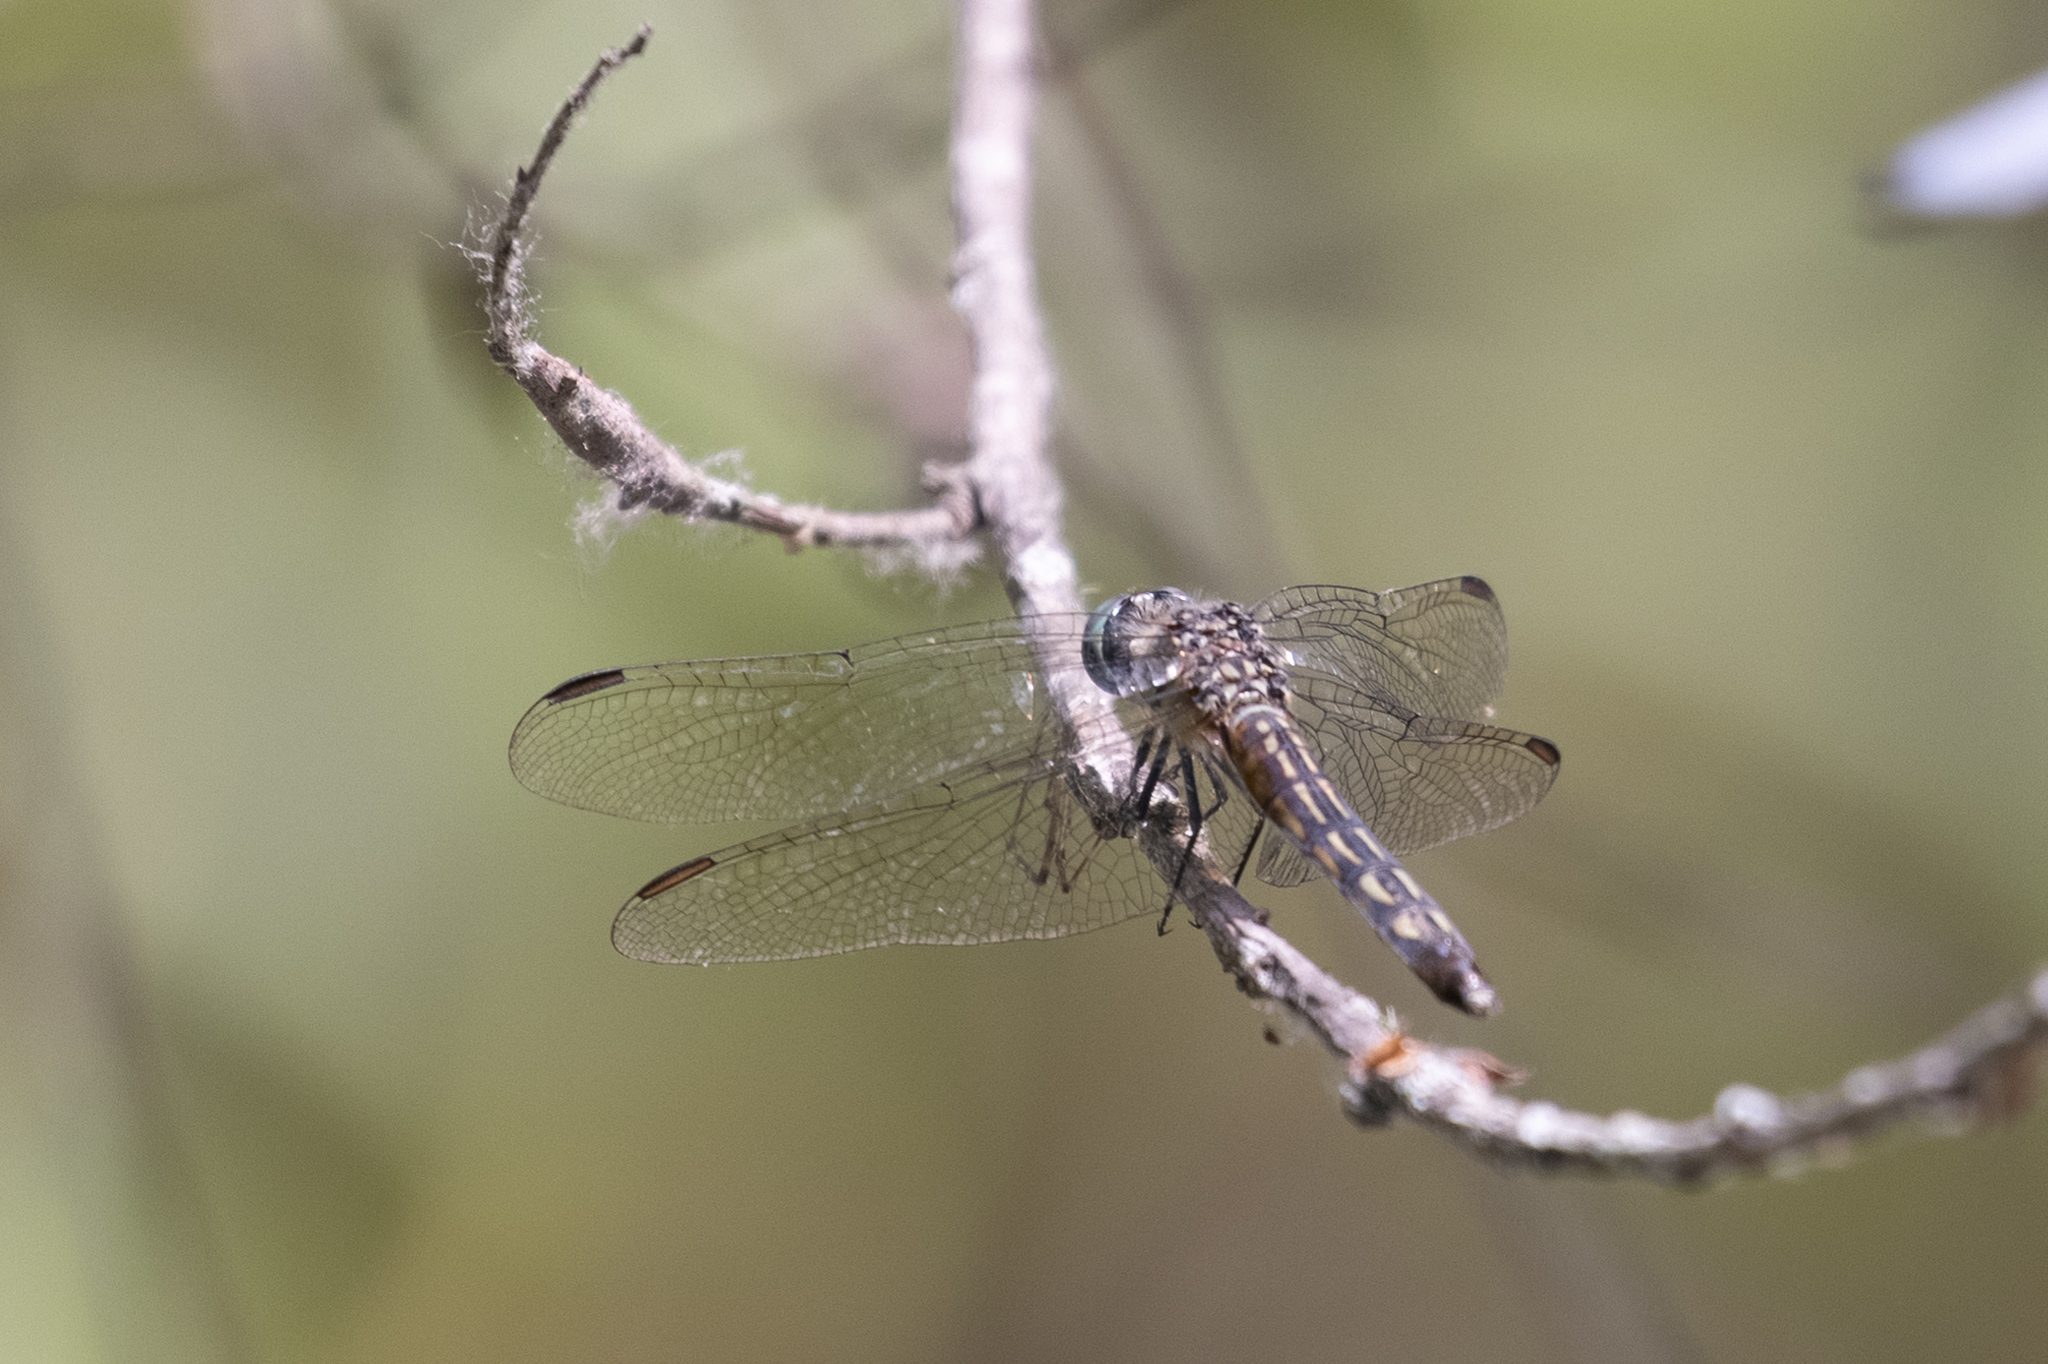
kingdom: Animalia
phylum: Arthropoda
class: Insecta
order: Odonata
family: Libellulidae
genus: Pachydiplax
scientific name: Pachydiplax longipennis
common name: Blue dasher
